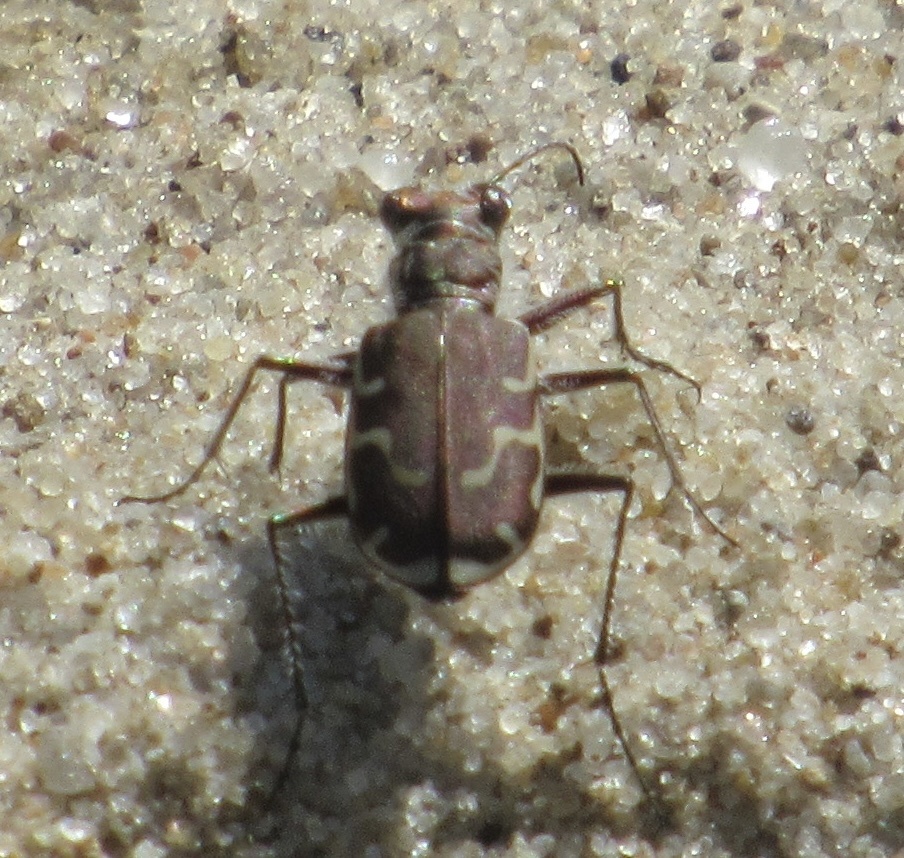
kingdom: Animalia
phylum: Arthropoda
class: Insecta
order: Coleoptera
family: Carabidae
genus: Cicindela
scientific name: Cicindela repanda
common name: Bronzed tiger beetle
